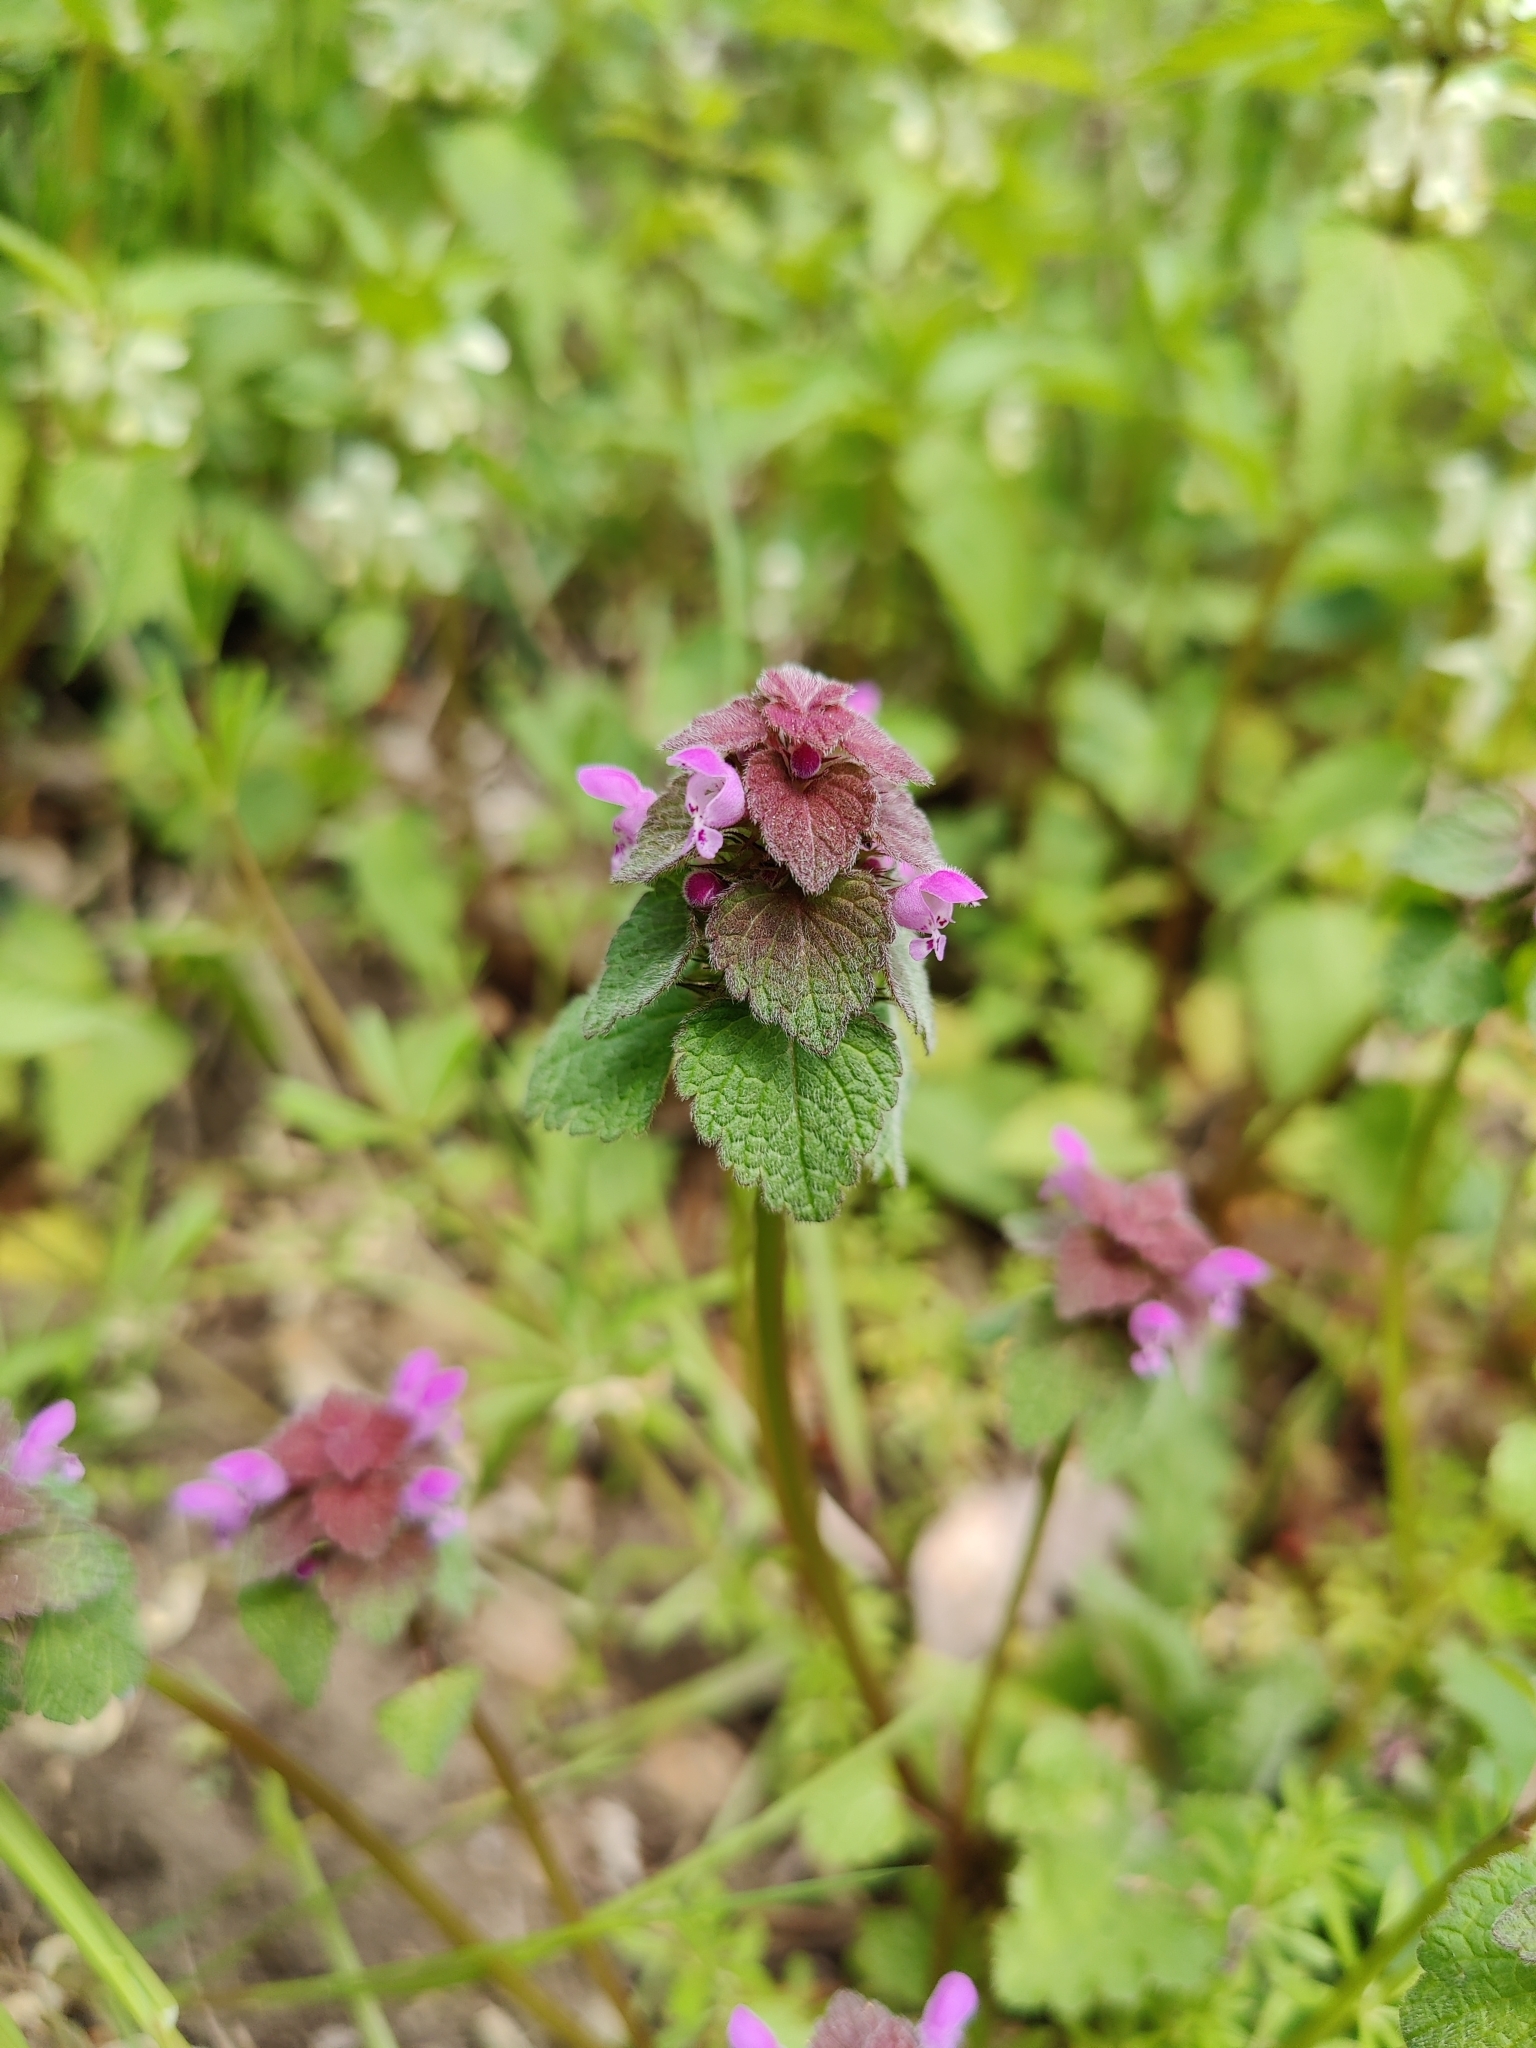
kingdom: Plantae
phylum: Tracheophyta
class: Magnoliopsida
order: Lamiales
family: Lamiaceae
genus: Lamium
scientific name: Lamium purpureum
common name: Red dead-nettle
